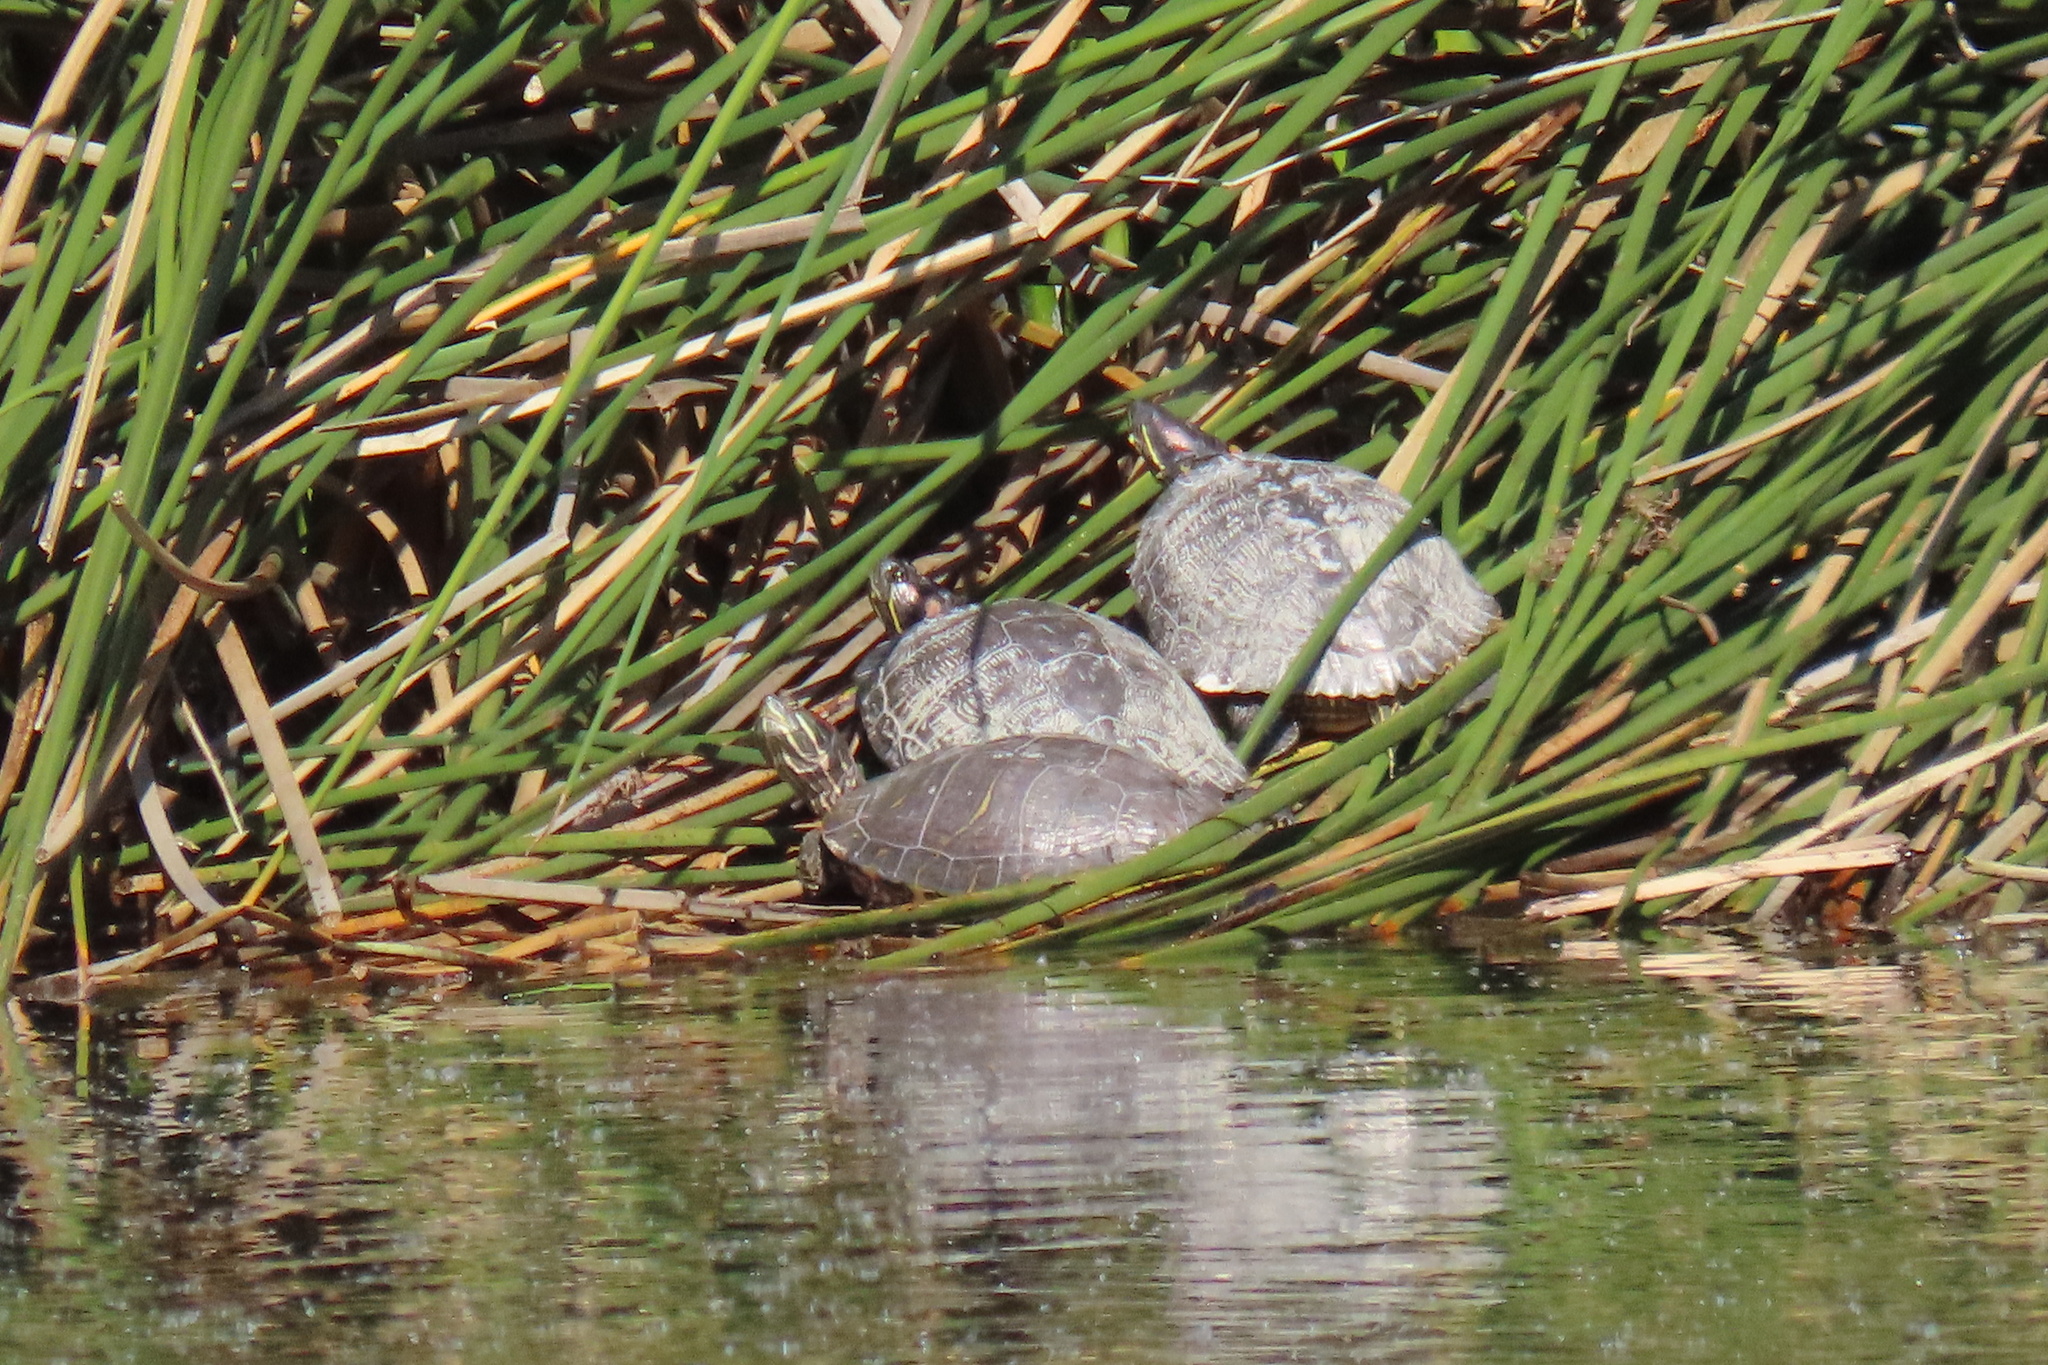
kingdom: Animalia
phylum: Chordata
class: Testudines
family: Emydidae
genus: Trachemys
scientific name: Trachemys scripta
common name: Slider
